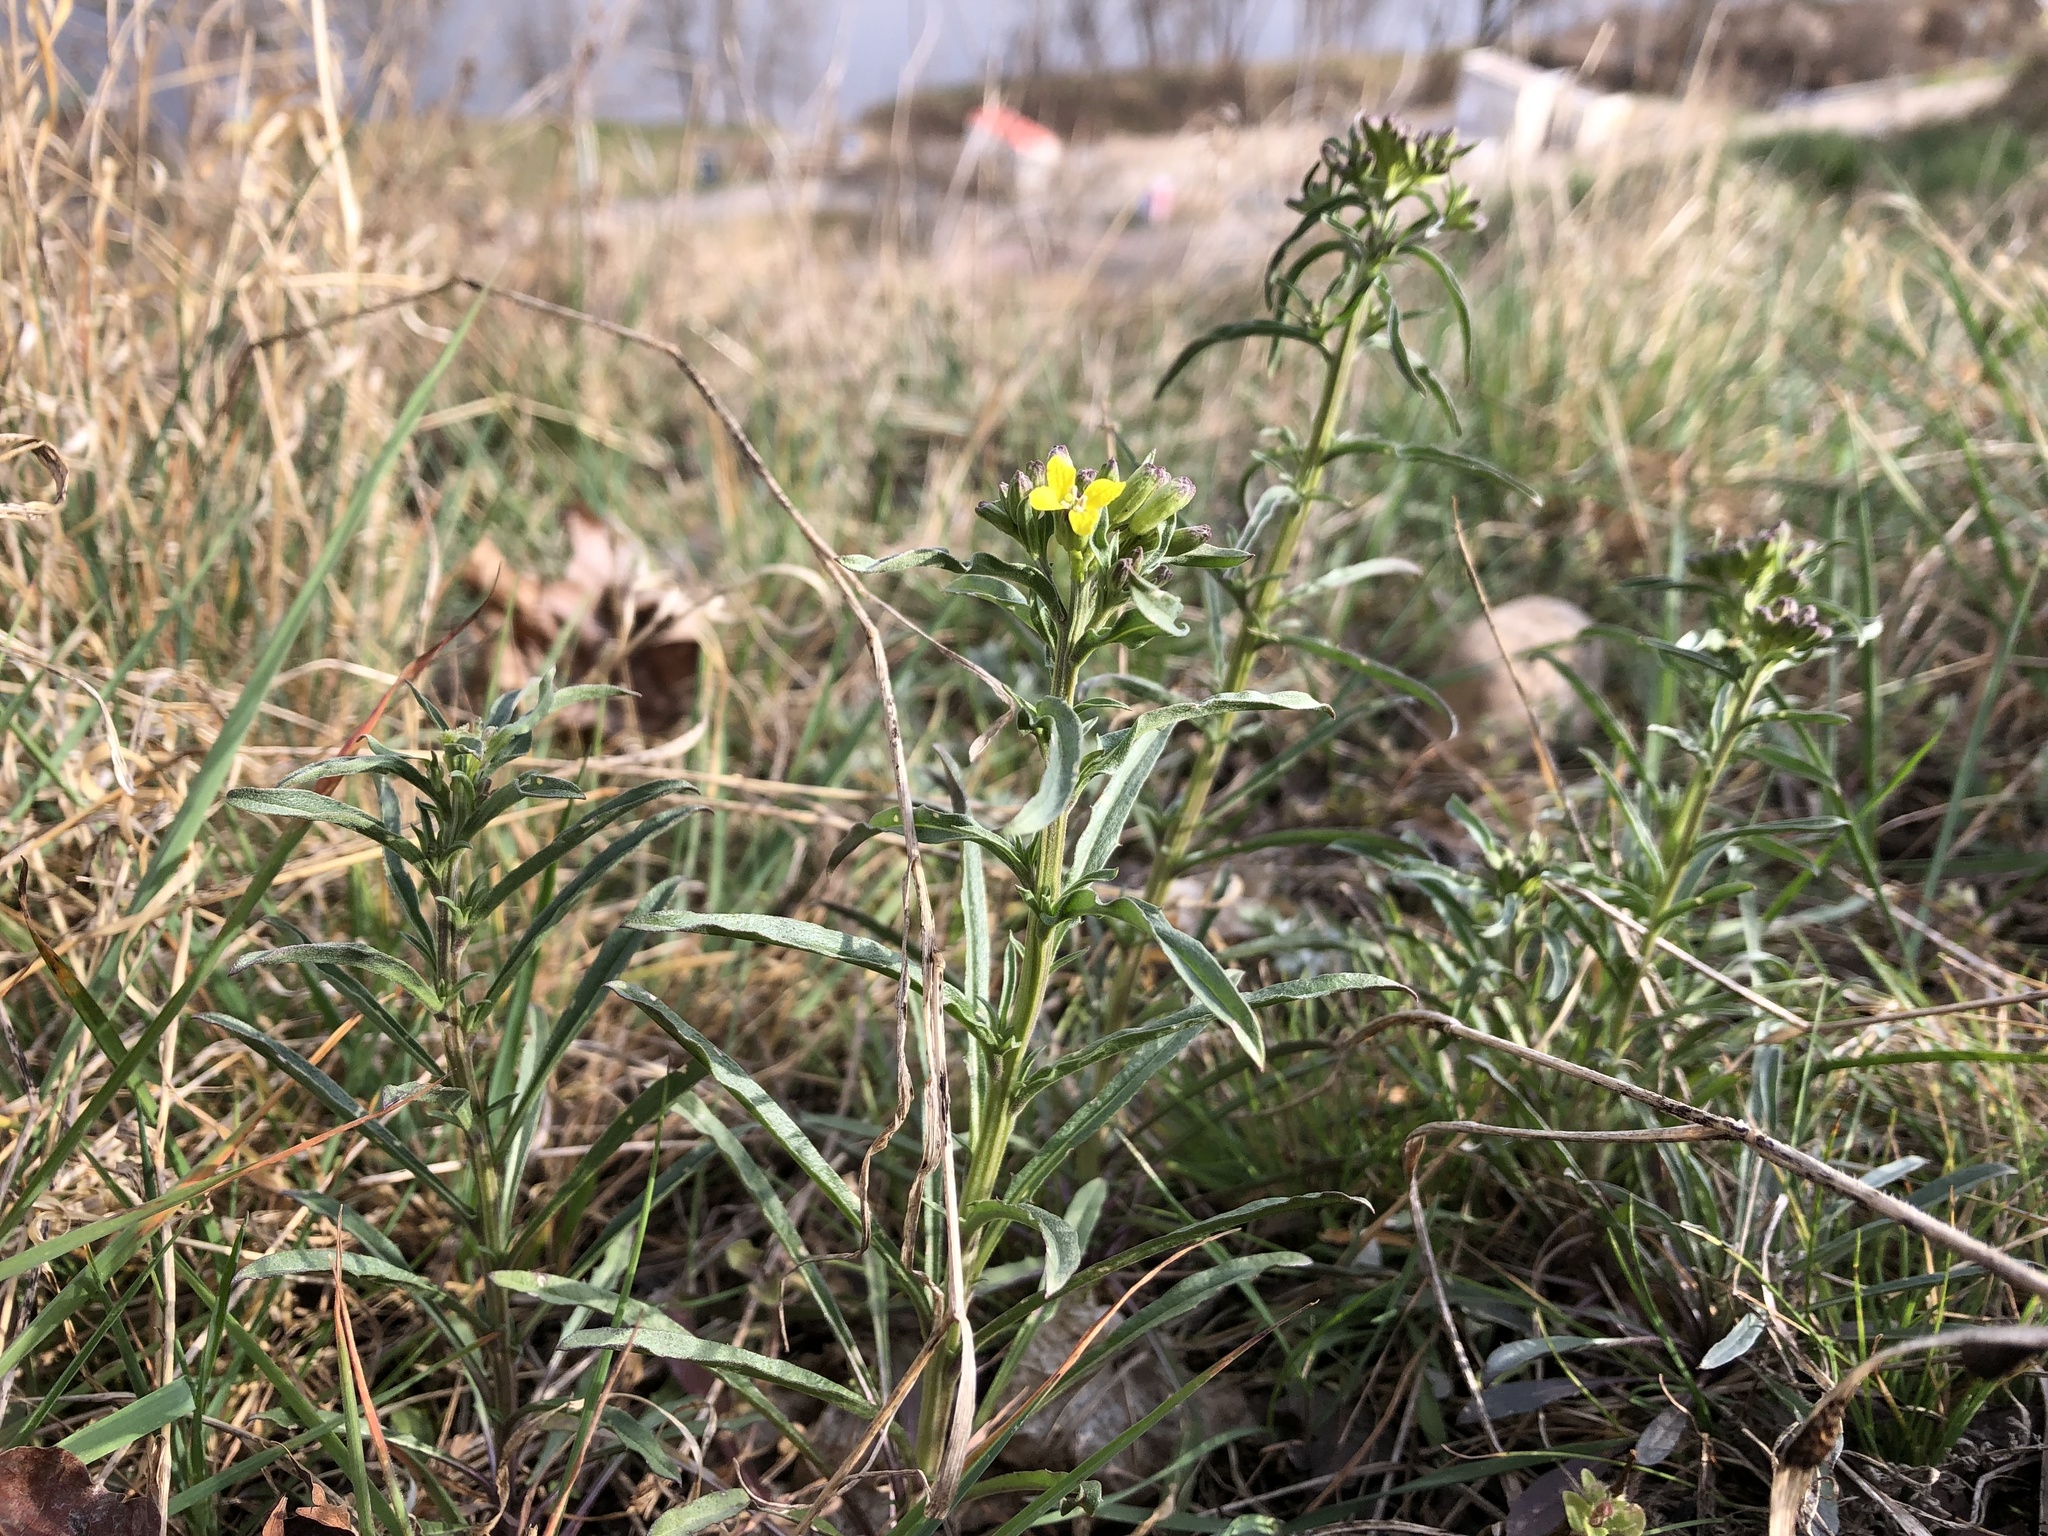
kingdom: Plantae
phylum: Tracheophyta
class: Magnoliopsida
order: Brassicales
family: Brassicaceae
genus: Erysimum
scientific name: Erysimum crepidifolium
